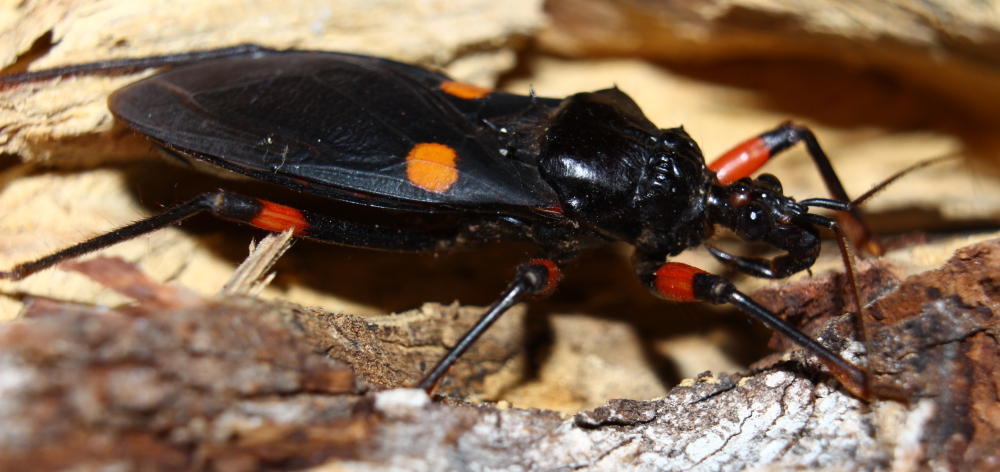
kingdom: Animalia
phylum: Arthropoda
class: Insecta
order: Hemiptera
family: Reduviidae
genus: Platymeris
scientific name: Platymeris rhadamanthus
